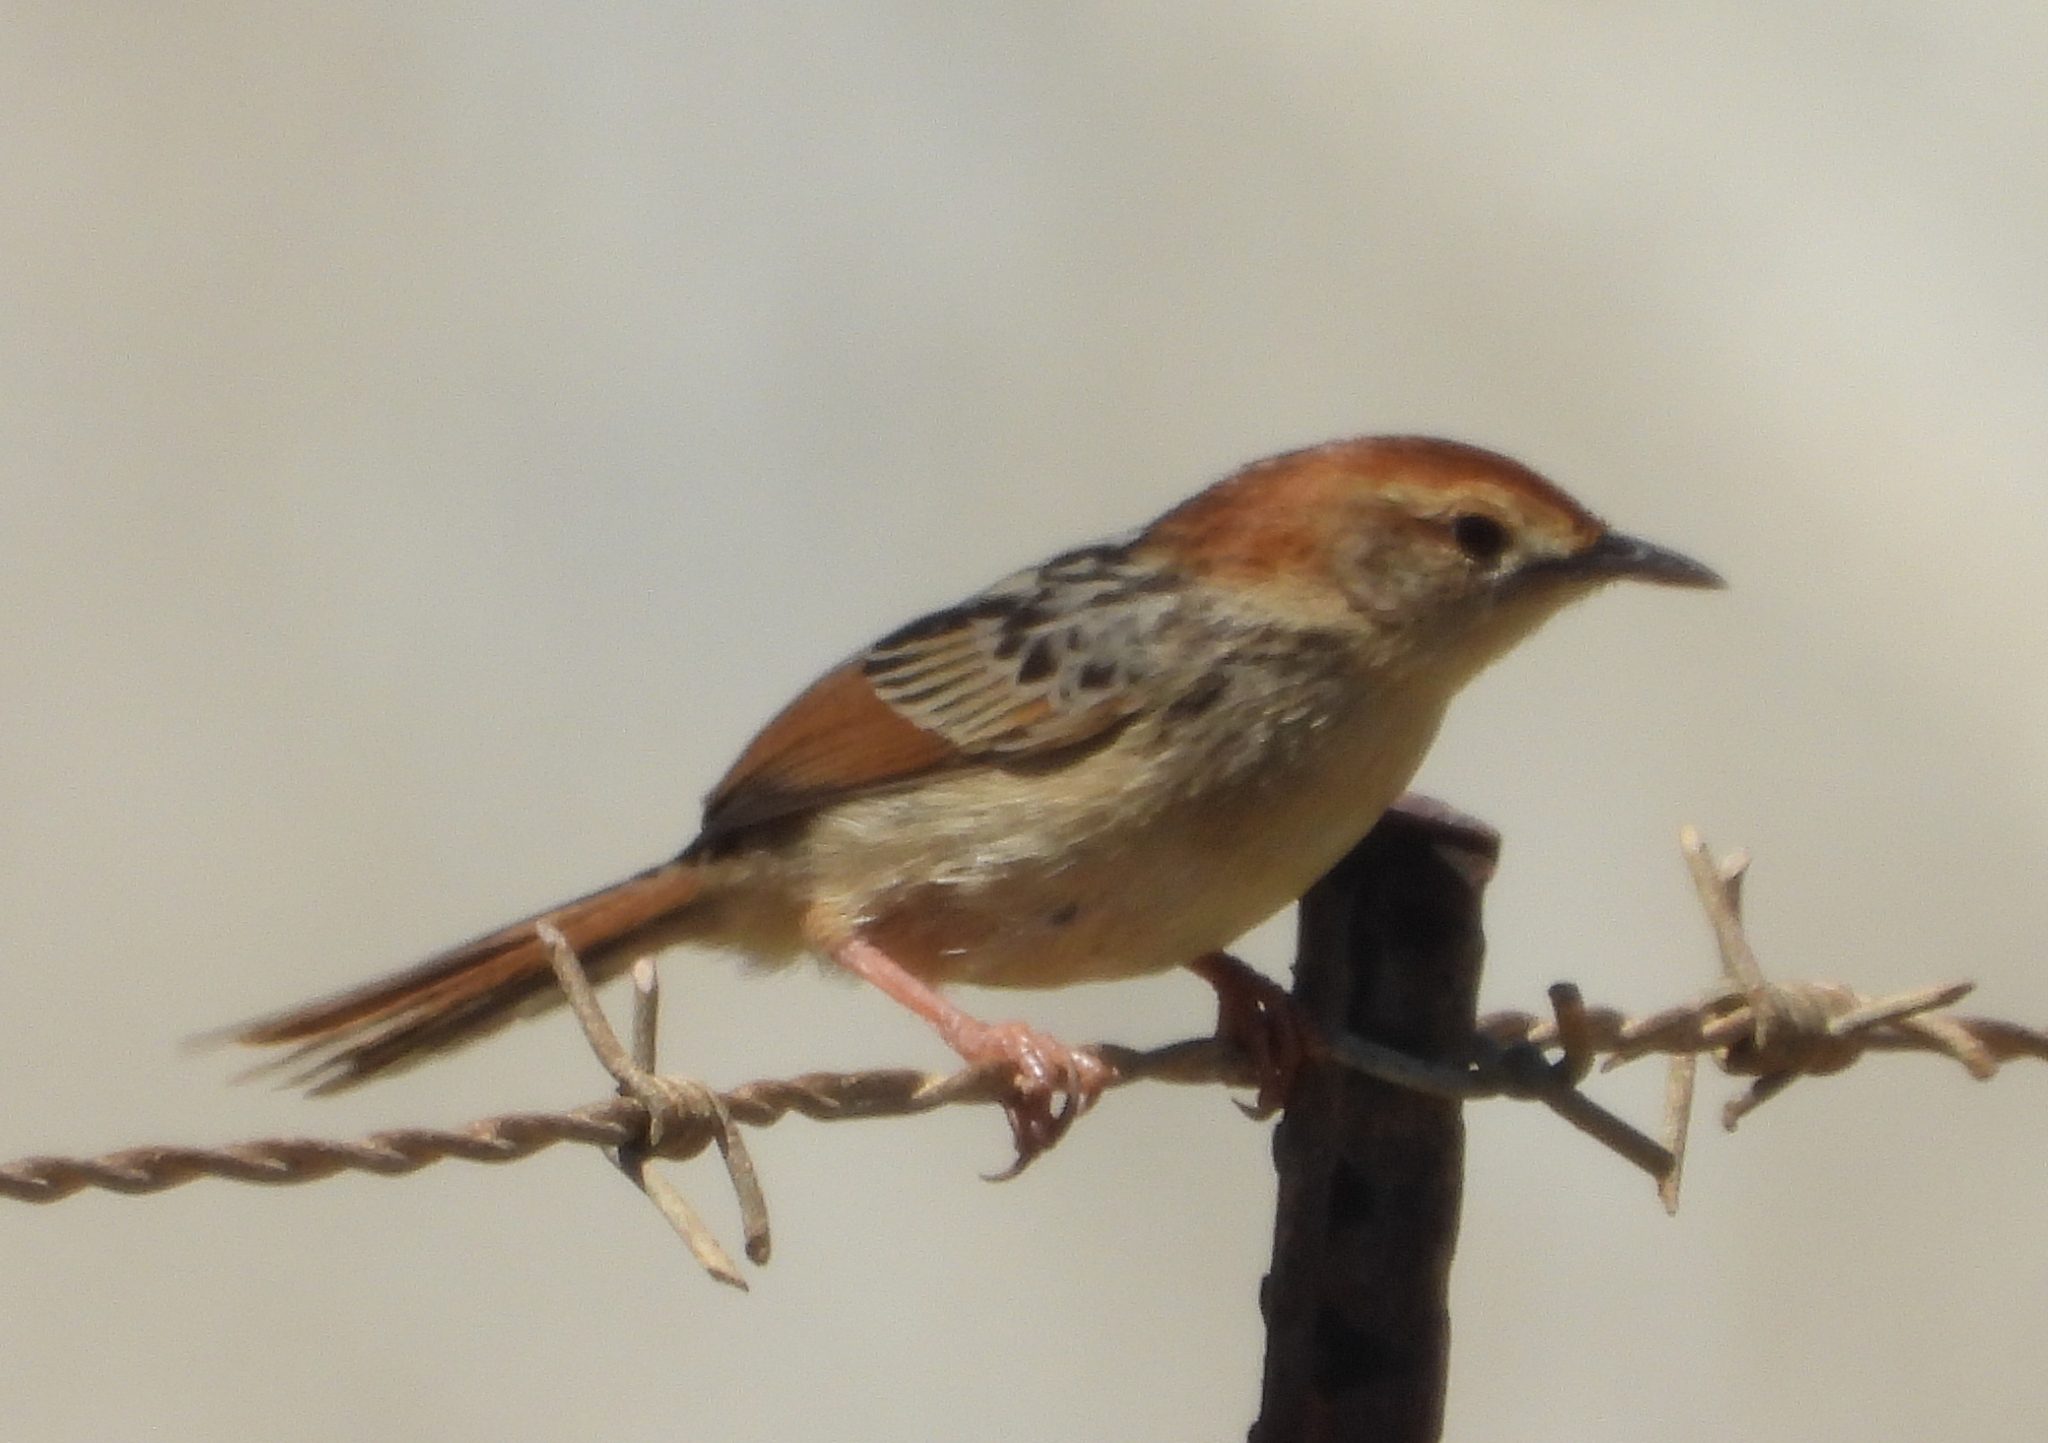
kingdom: Animalia
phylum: Chordata
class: Aves
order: Passeriformes
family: Cisticolidae
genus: Cisticola
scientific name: Cisticola tinniens
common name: Levaillant's cisticola
